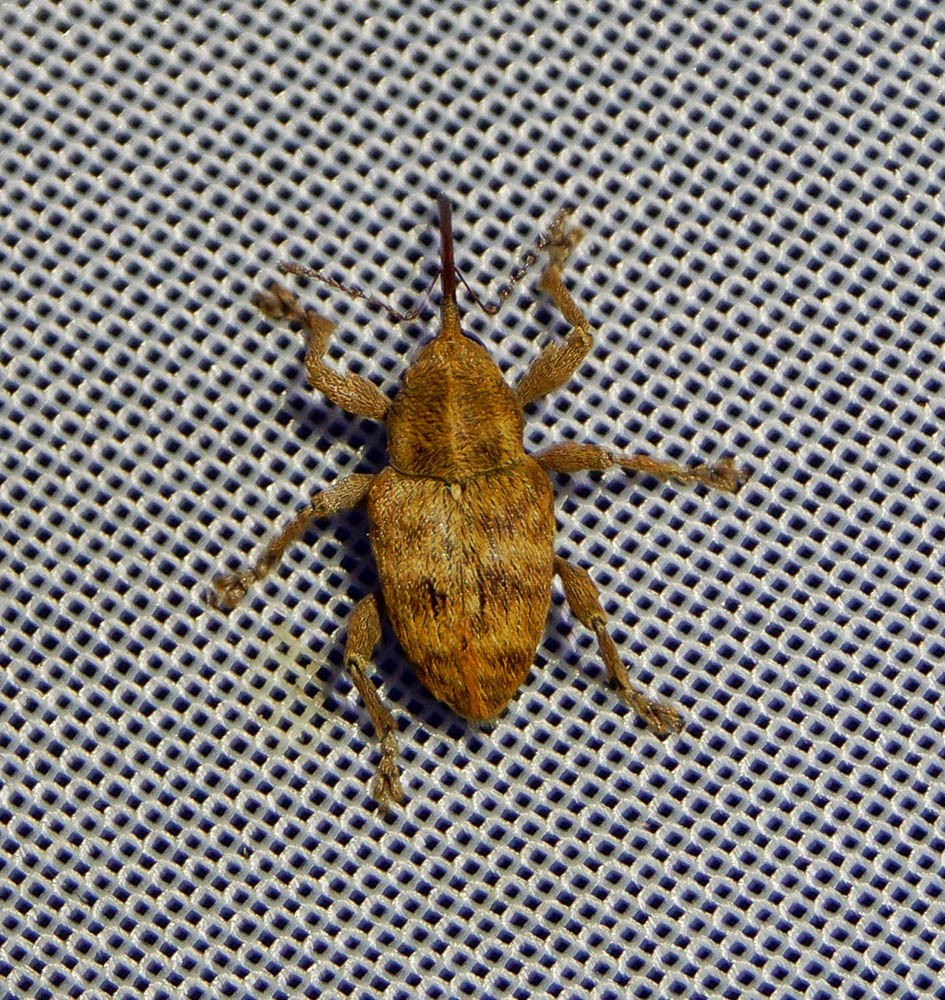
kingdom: Animalia
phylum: Arthropoda
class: Insecta
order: Coleoptera
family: Curculionidae
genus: Curculio
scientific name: Curculio venosus
